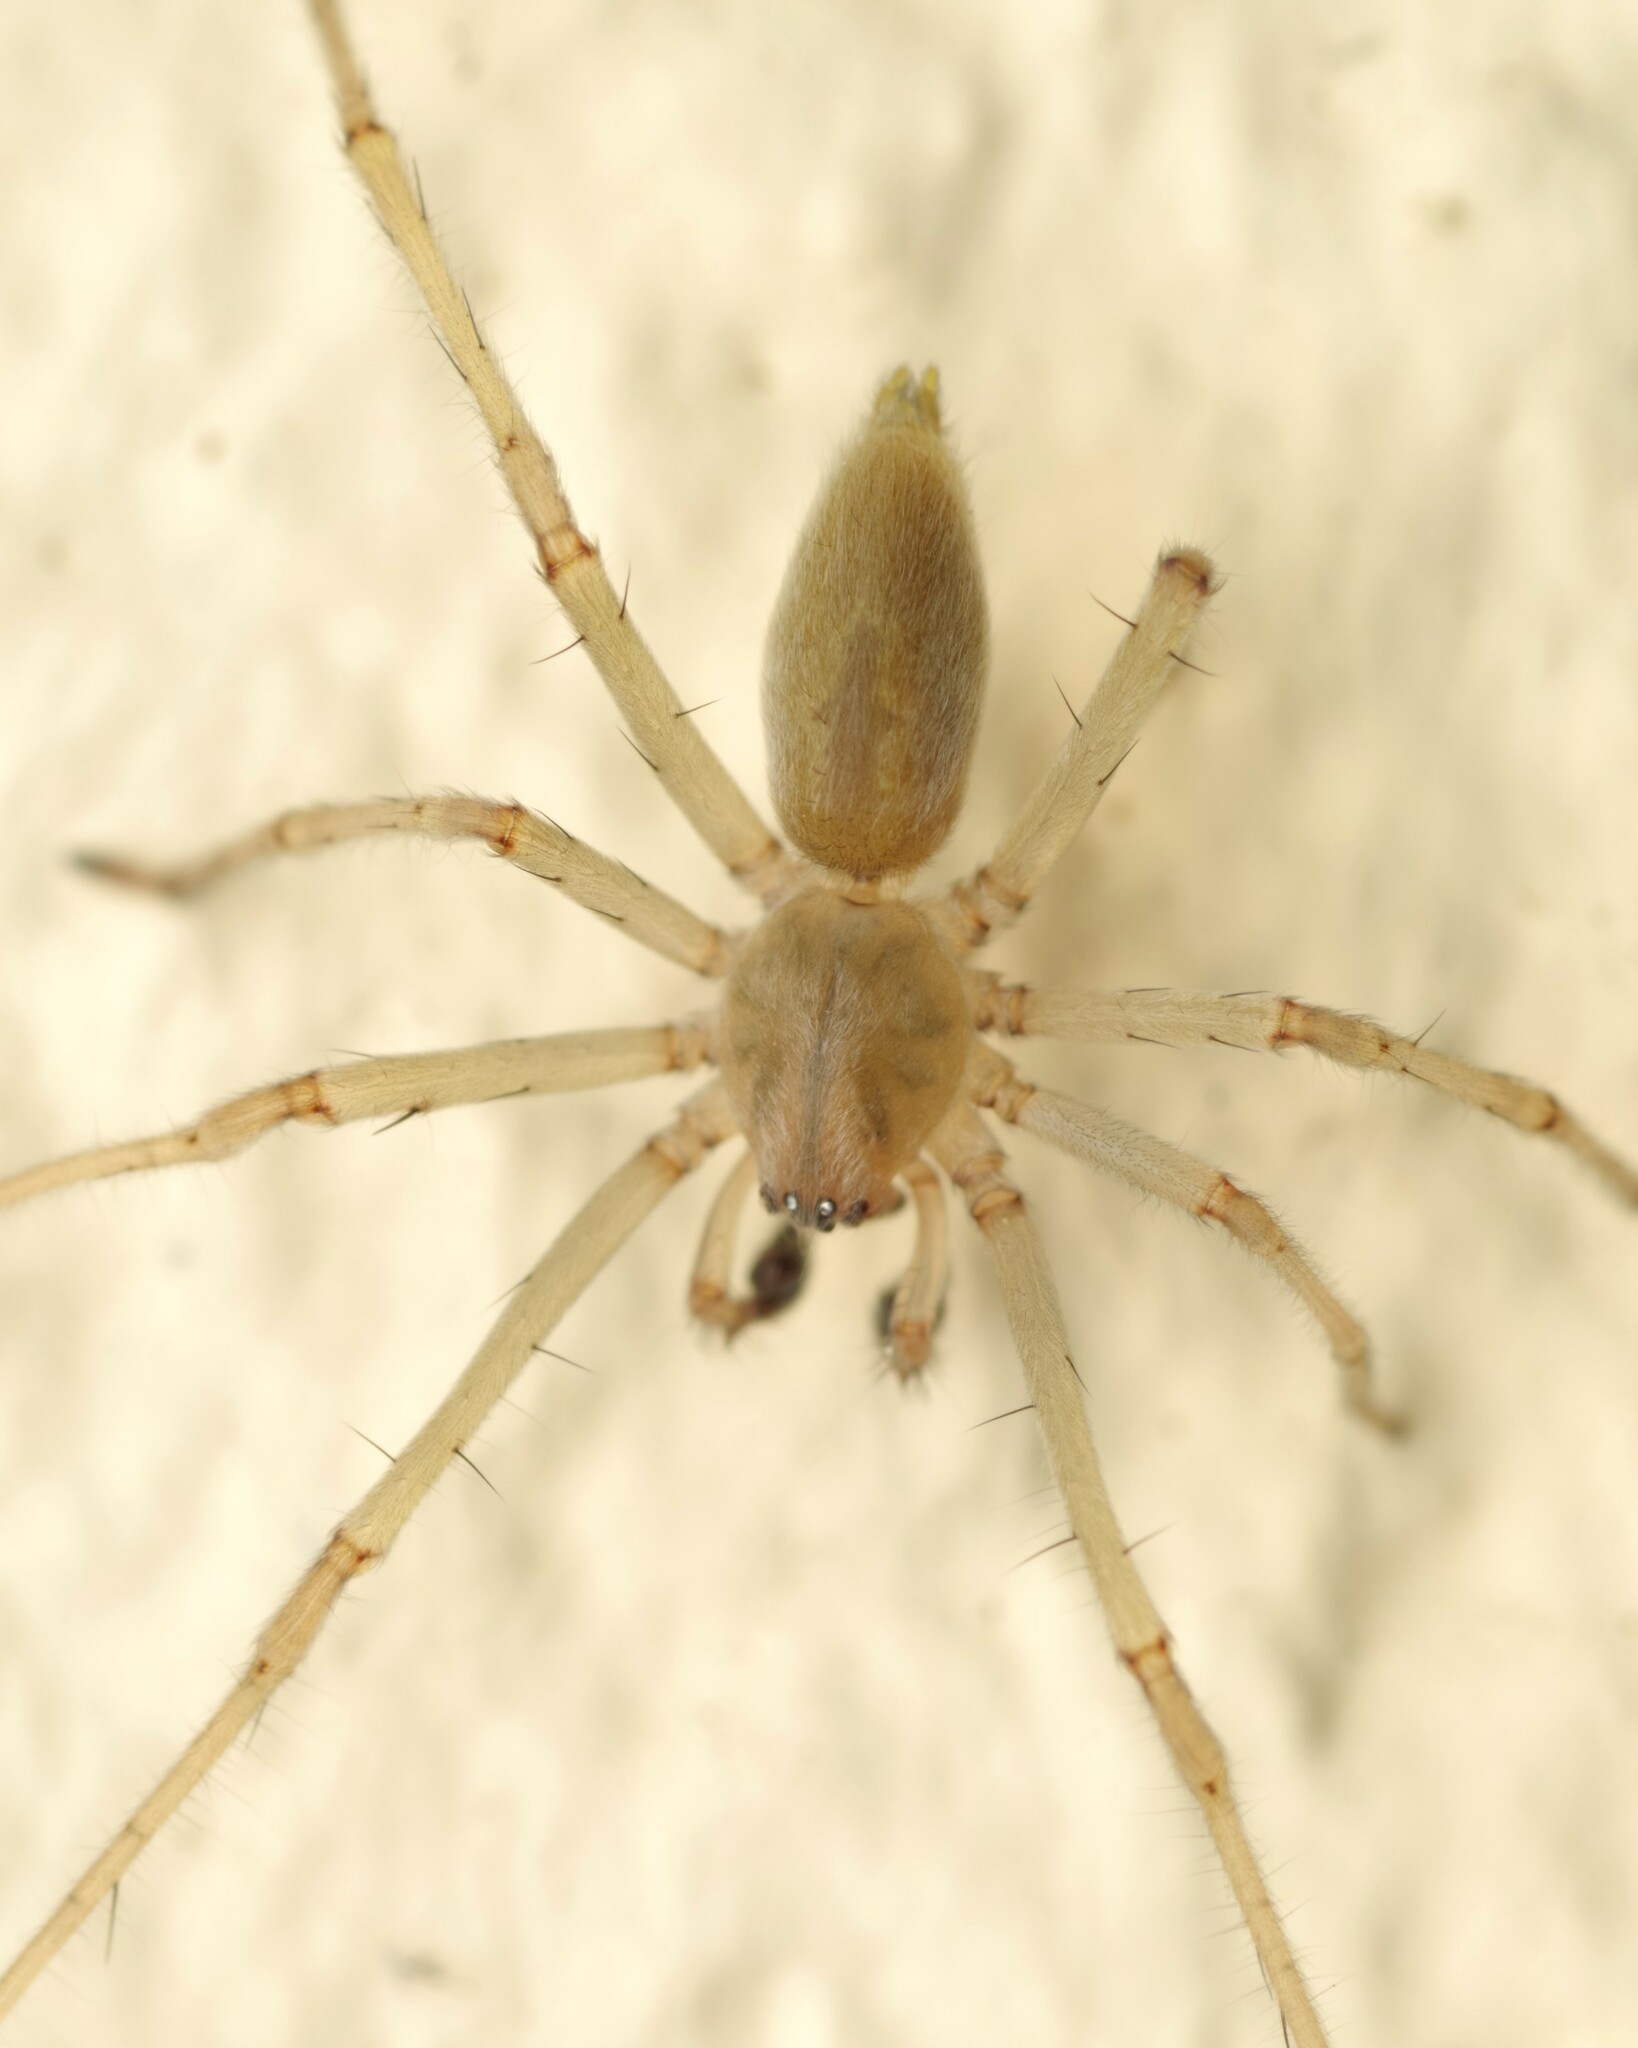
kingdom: Animalia
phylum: Arthropoda
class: Arachnida
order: Araneae
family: Cheiracanthiidae
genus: Cheiracanthium
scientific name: Cheiracanthium mildei
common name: Northern yellow sac spider
